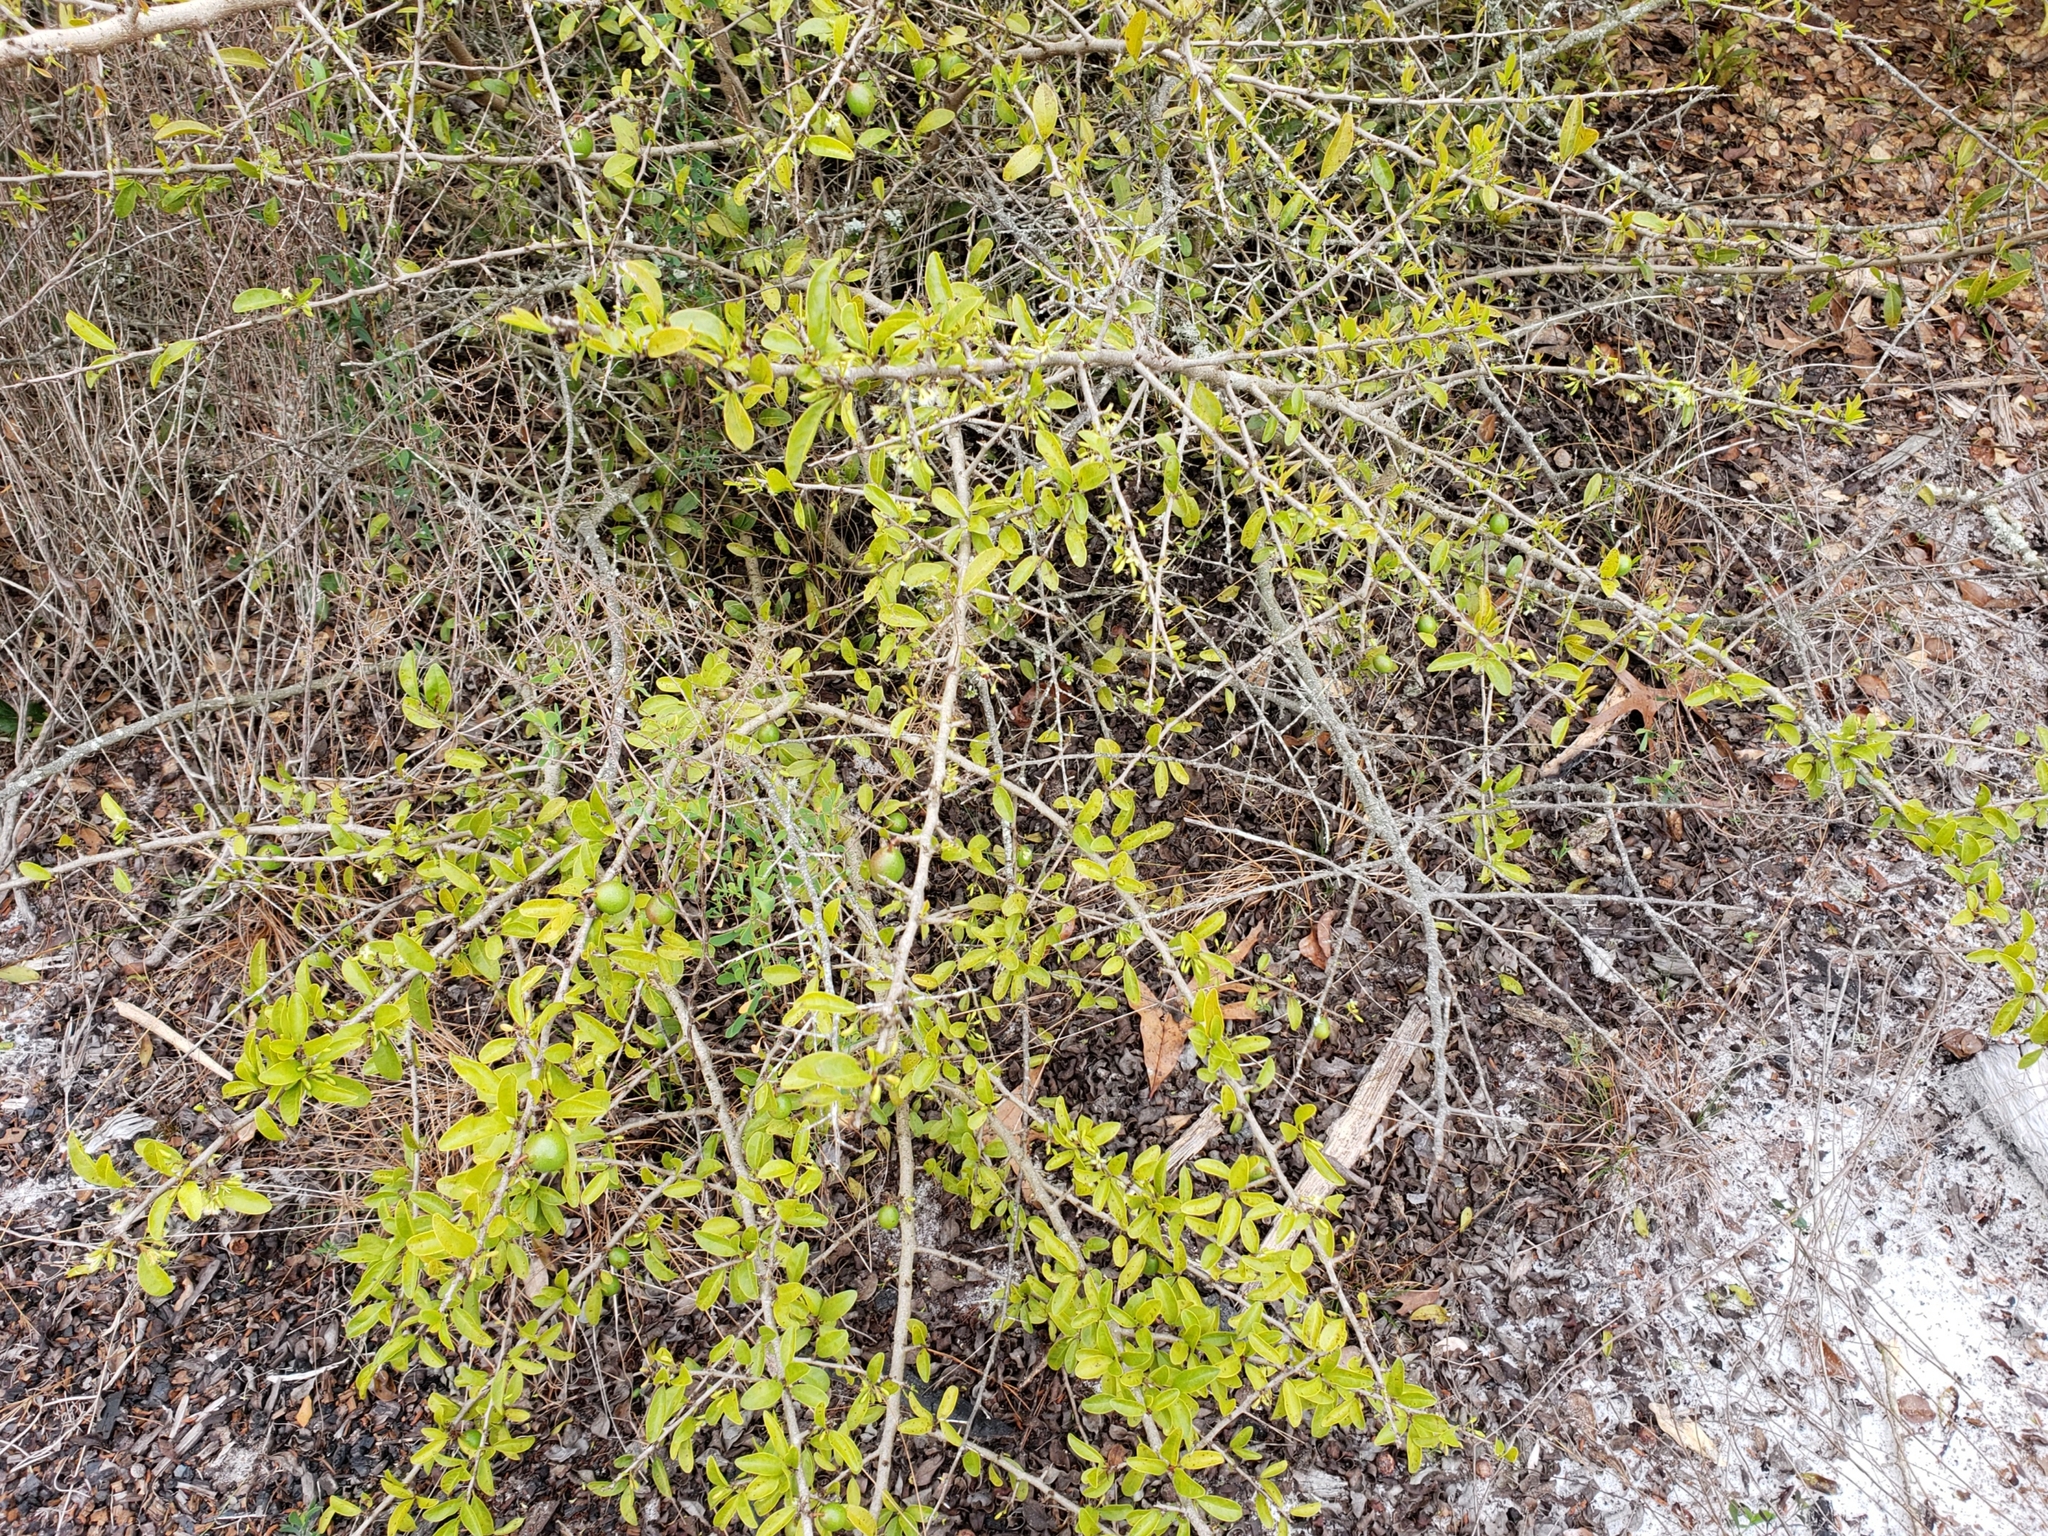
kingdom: Plantae
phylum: Tracheophyta
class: Magnoliopsida
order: Santalales
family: Ximeniaceae
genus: Ximenia
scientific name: Ximenia americana
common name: Tallowwood
